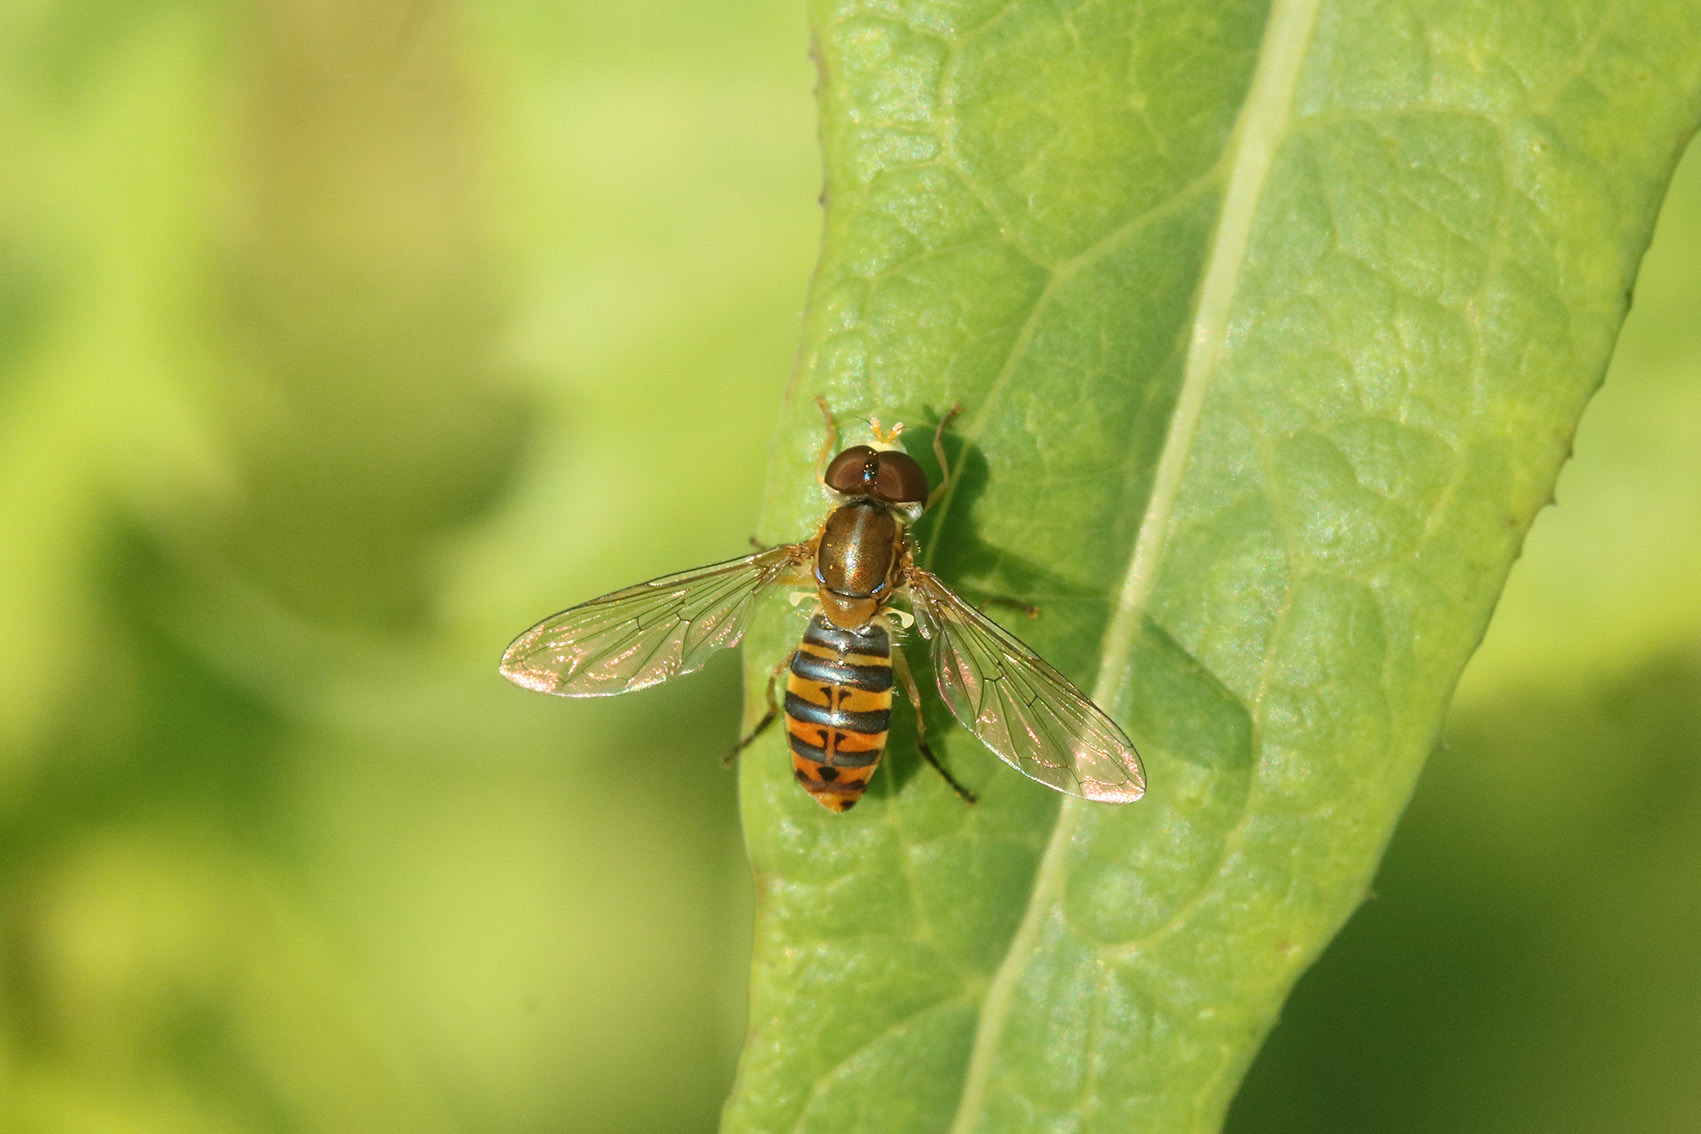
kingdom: Animalia
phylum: Arthropoda
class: Insecta
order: Diptera
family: Syrphidae
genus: Toxomerus
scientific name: Toxomerus
